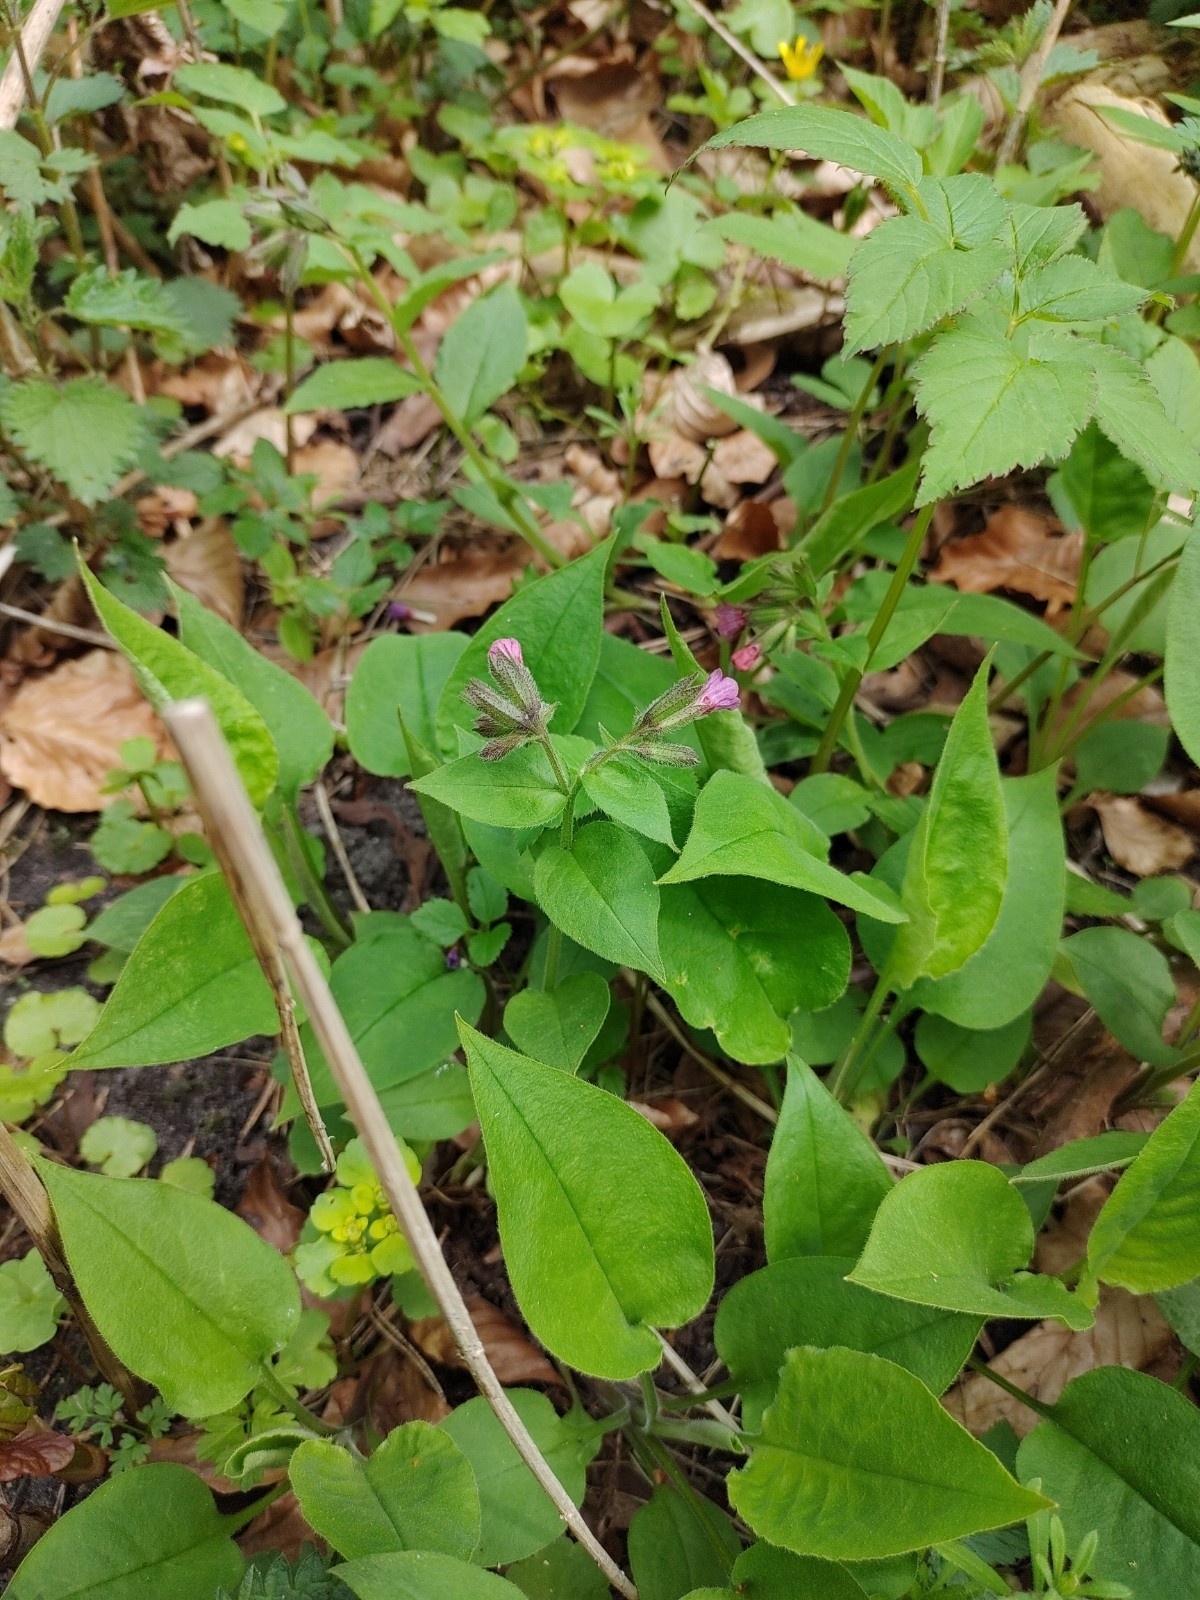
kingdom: Plantae
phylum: Tracheophyta
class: Magnoliopsida
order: Boraginales
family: Boraginaceae
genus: Pulmonaria
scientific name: Pulmonaria obscura
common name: Suffolk lungwort
